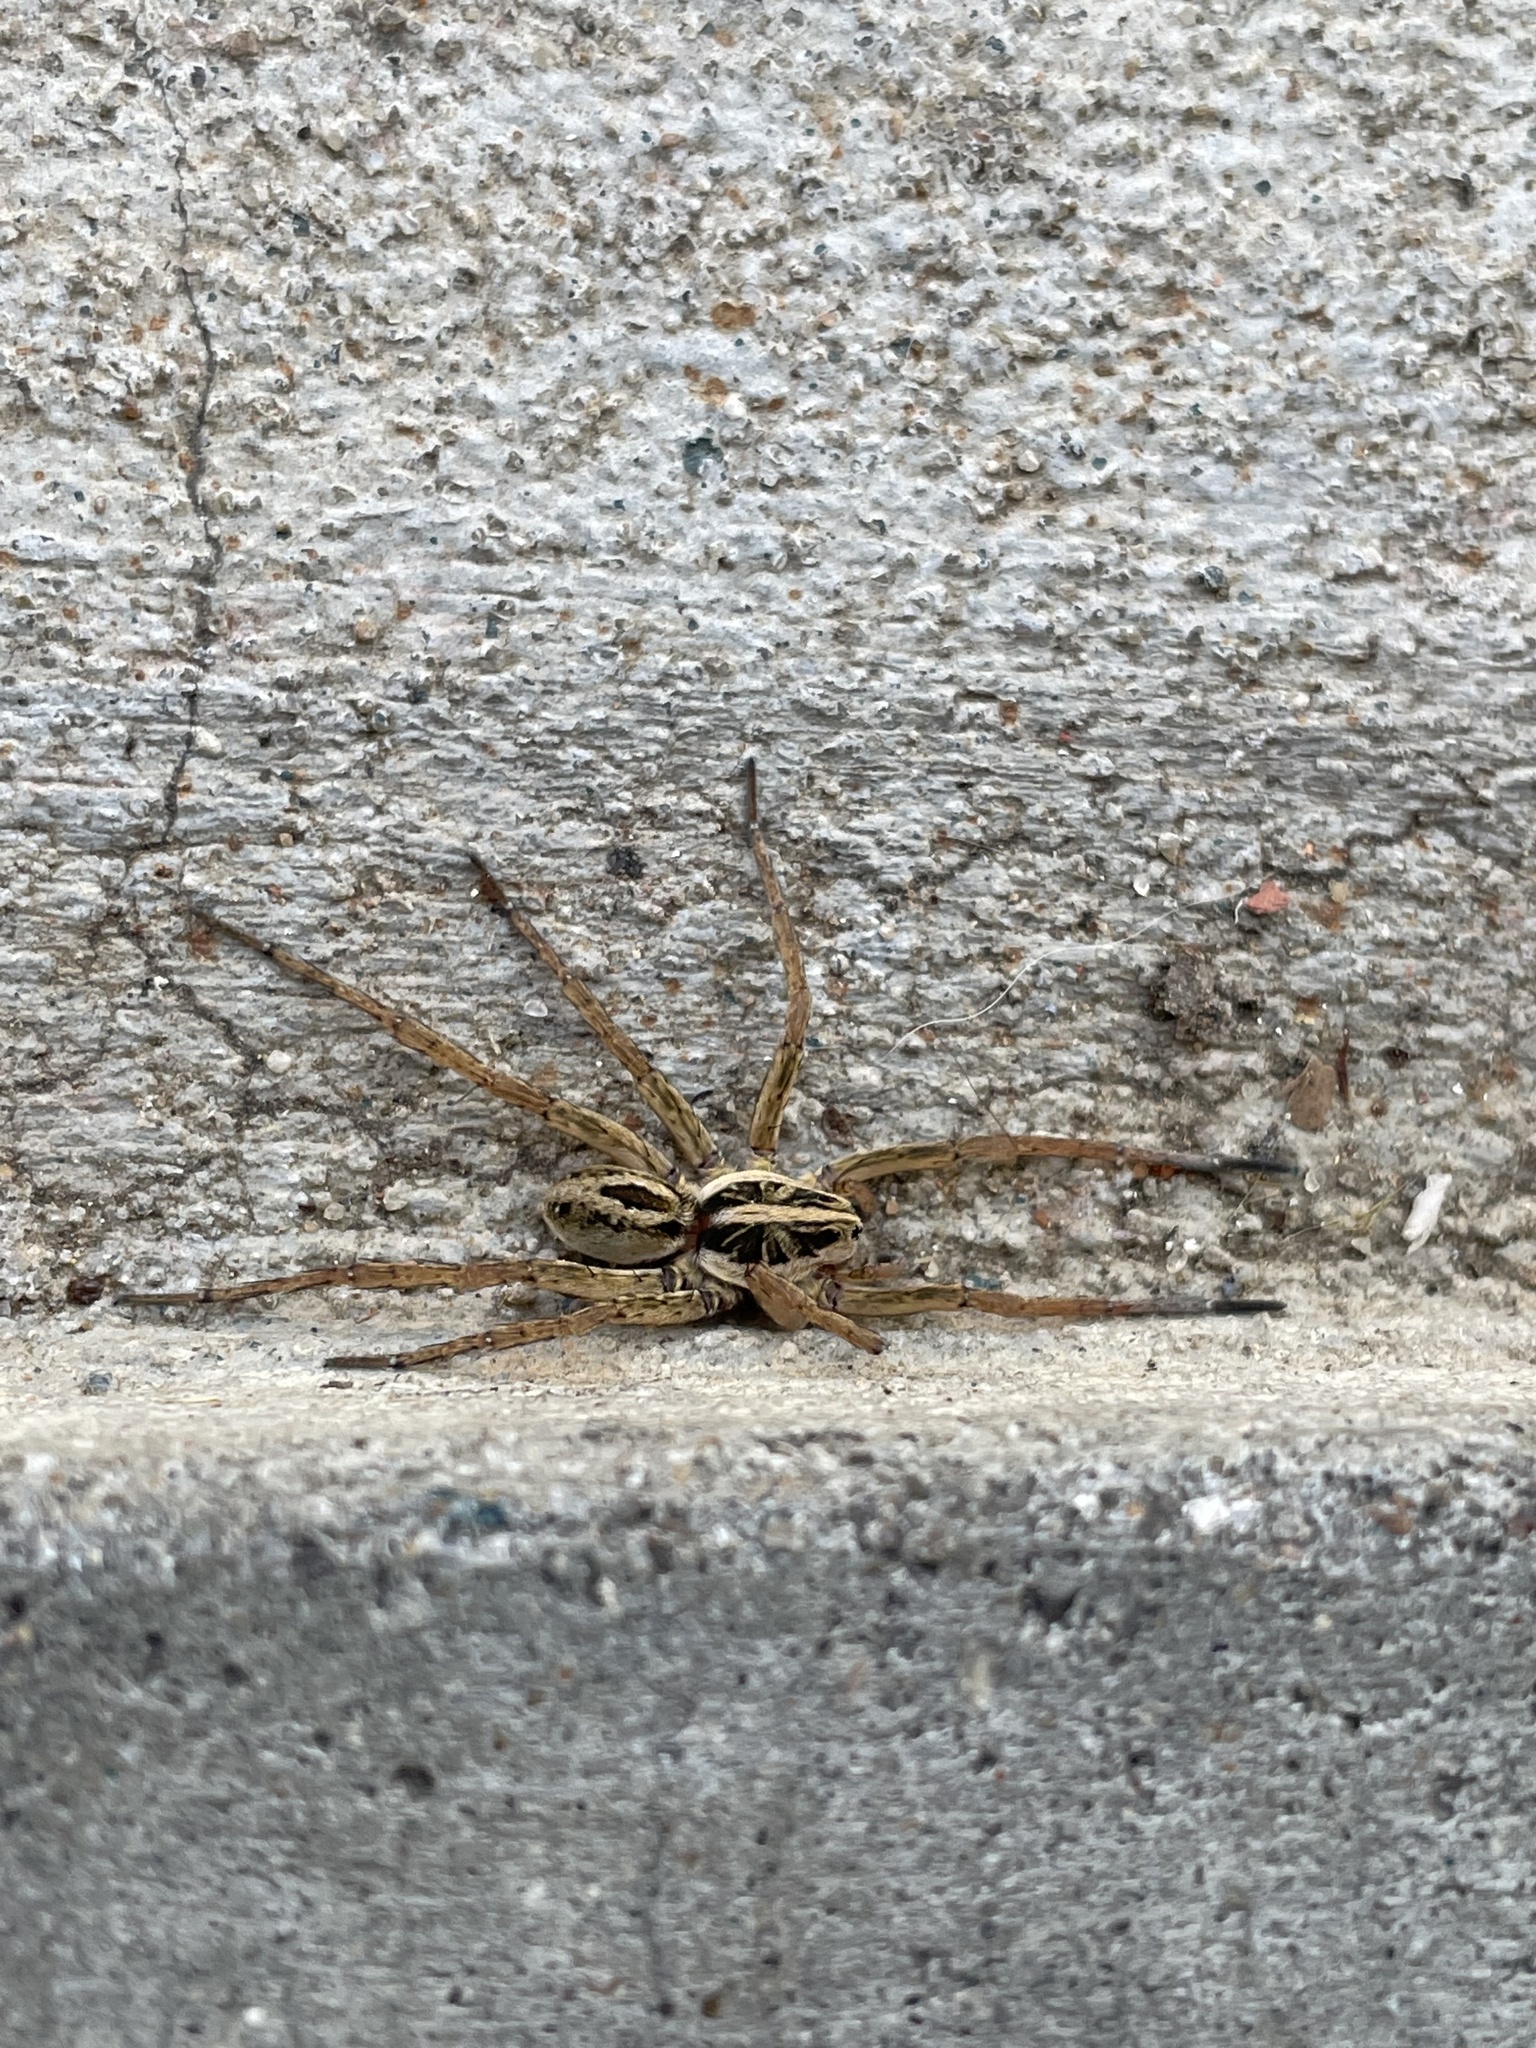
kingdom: Animalia
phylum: Arthropoda
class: Arachnida
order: Araneae
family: Lycosidae
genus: Tigrosa
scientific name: Tigrosa annexa
